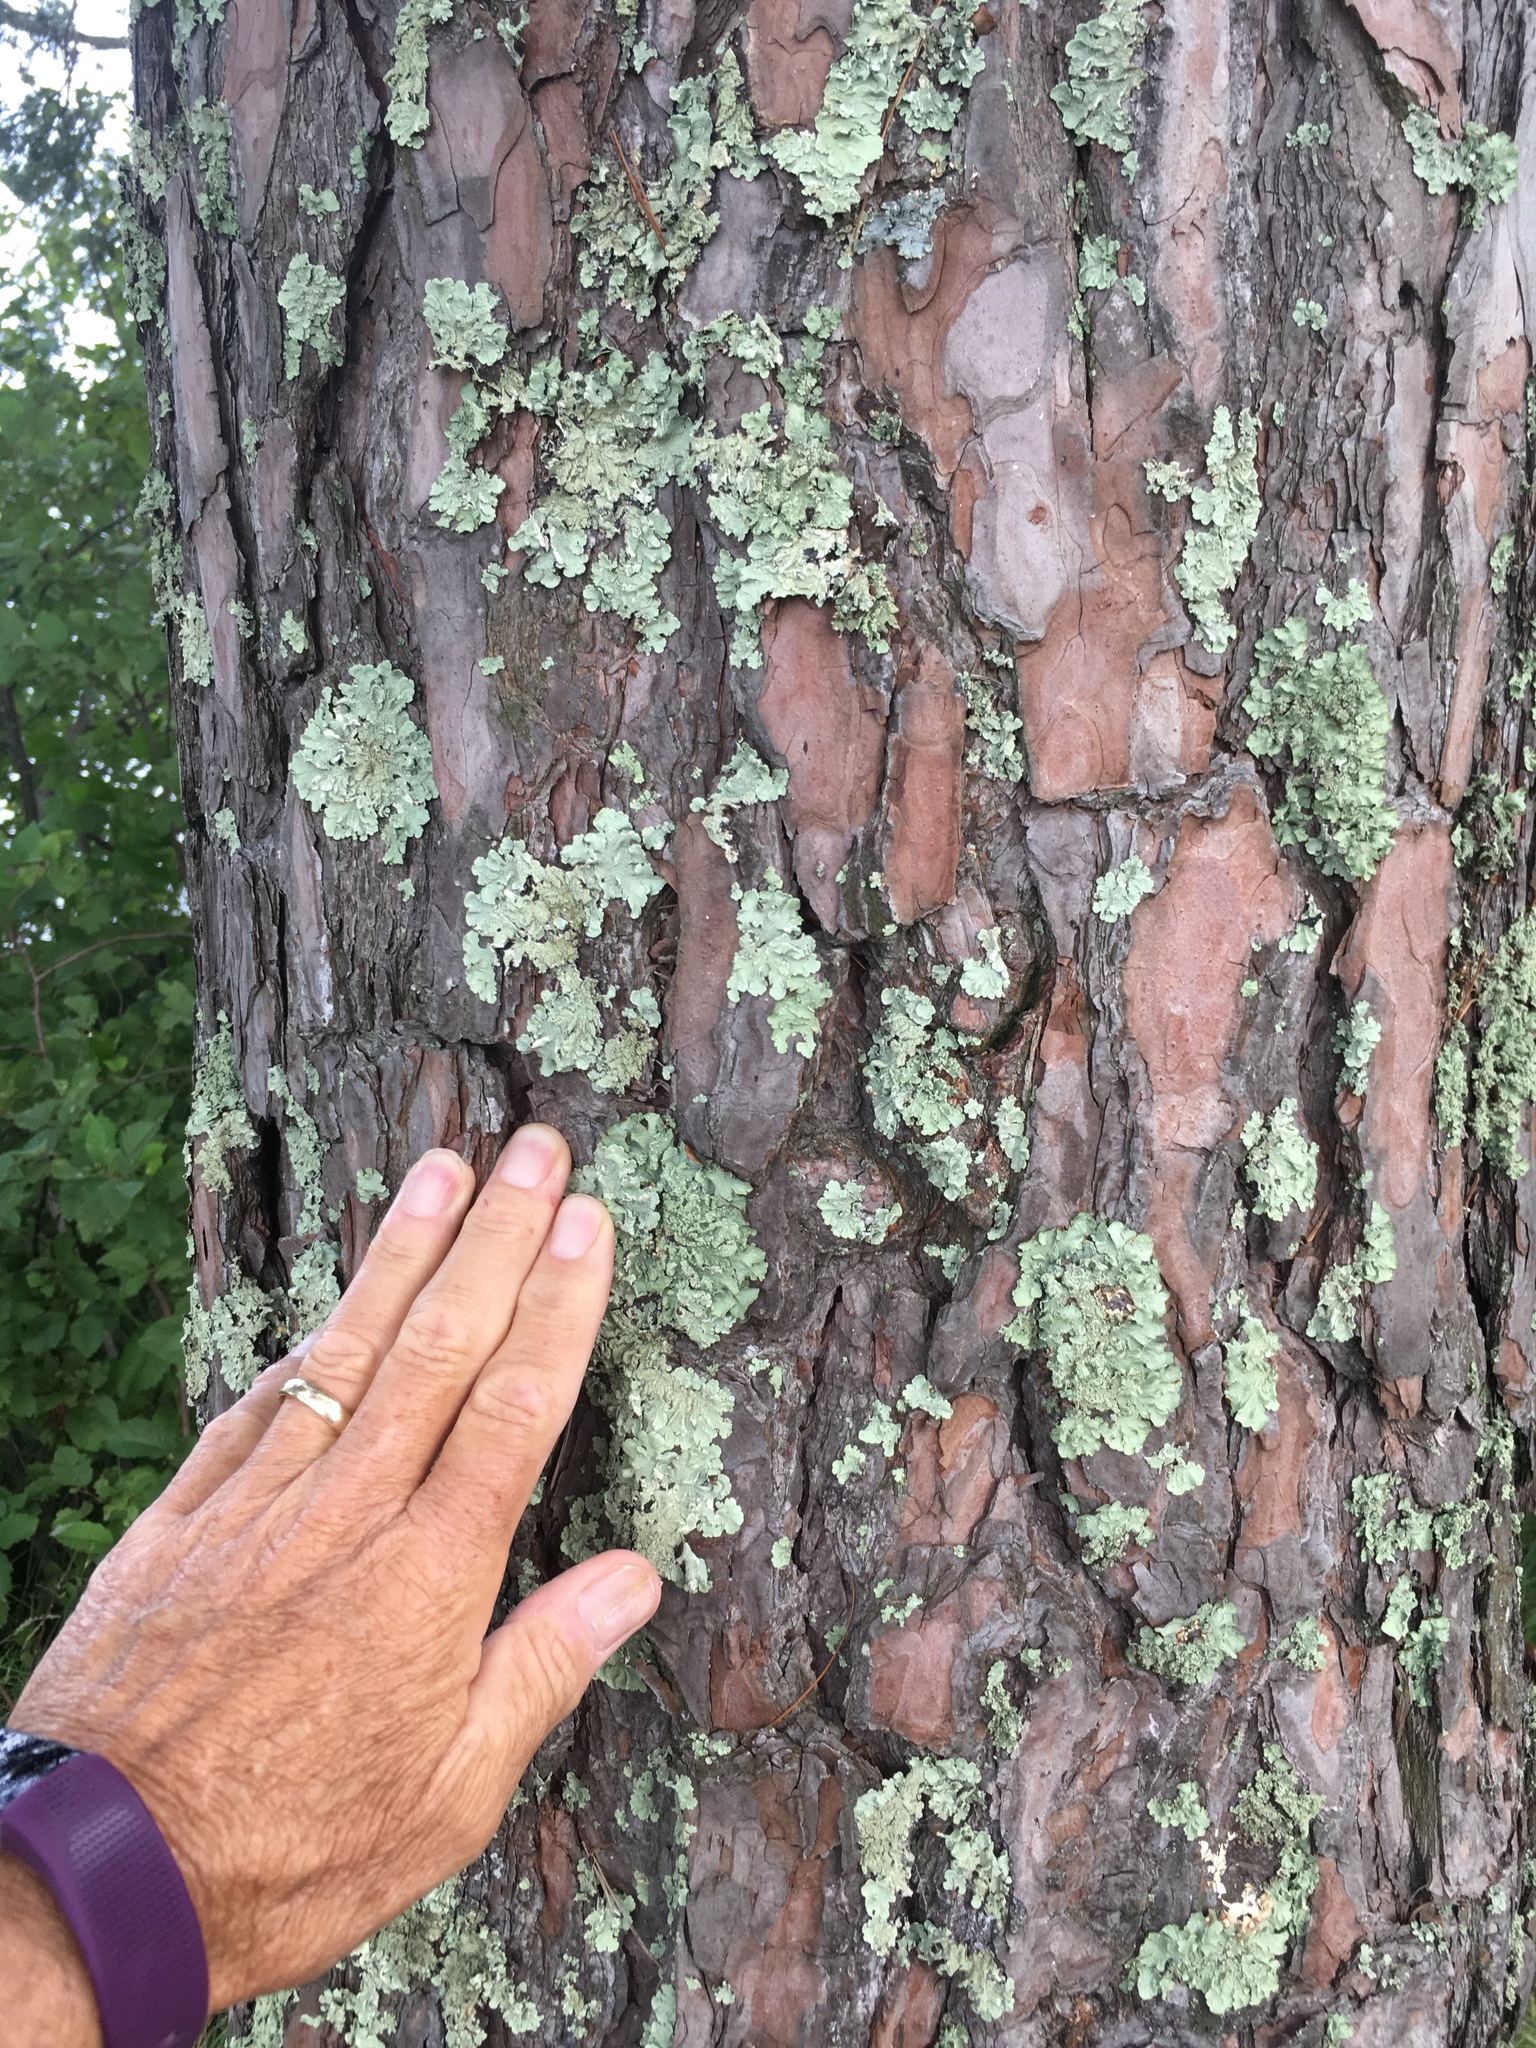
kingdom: Plantae
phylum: Tracheophyta
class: Pinopsida
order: Pinales
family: Pinaceae
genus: Pinus
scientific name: Pinus sylvestris
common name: Scots pine
